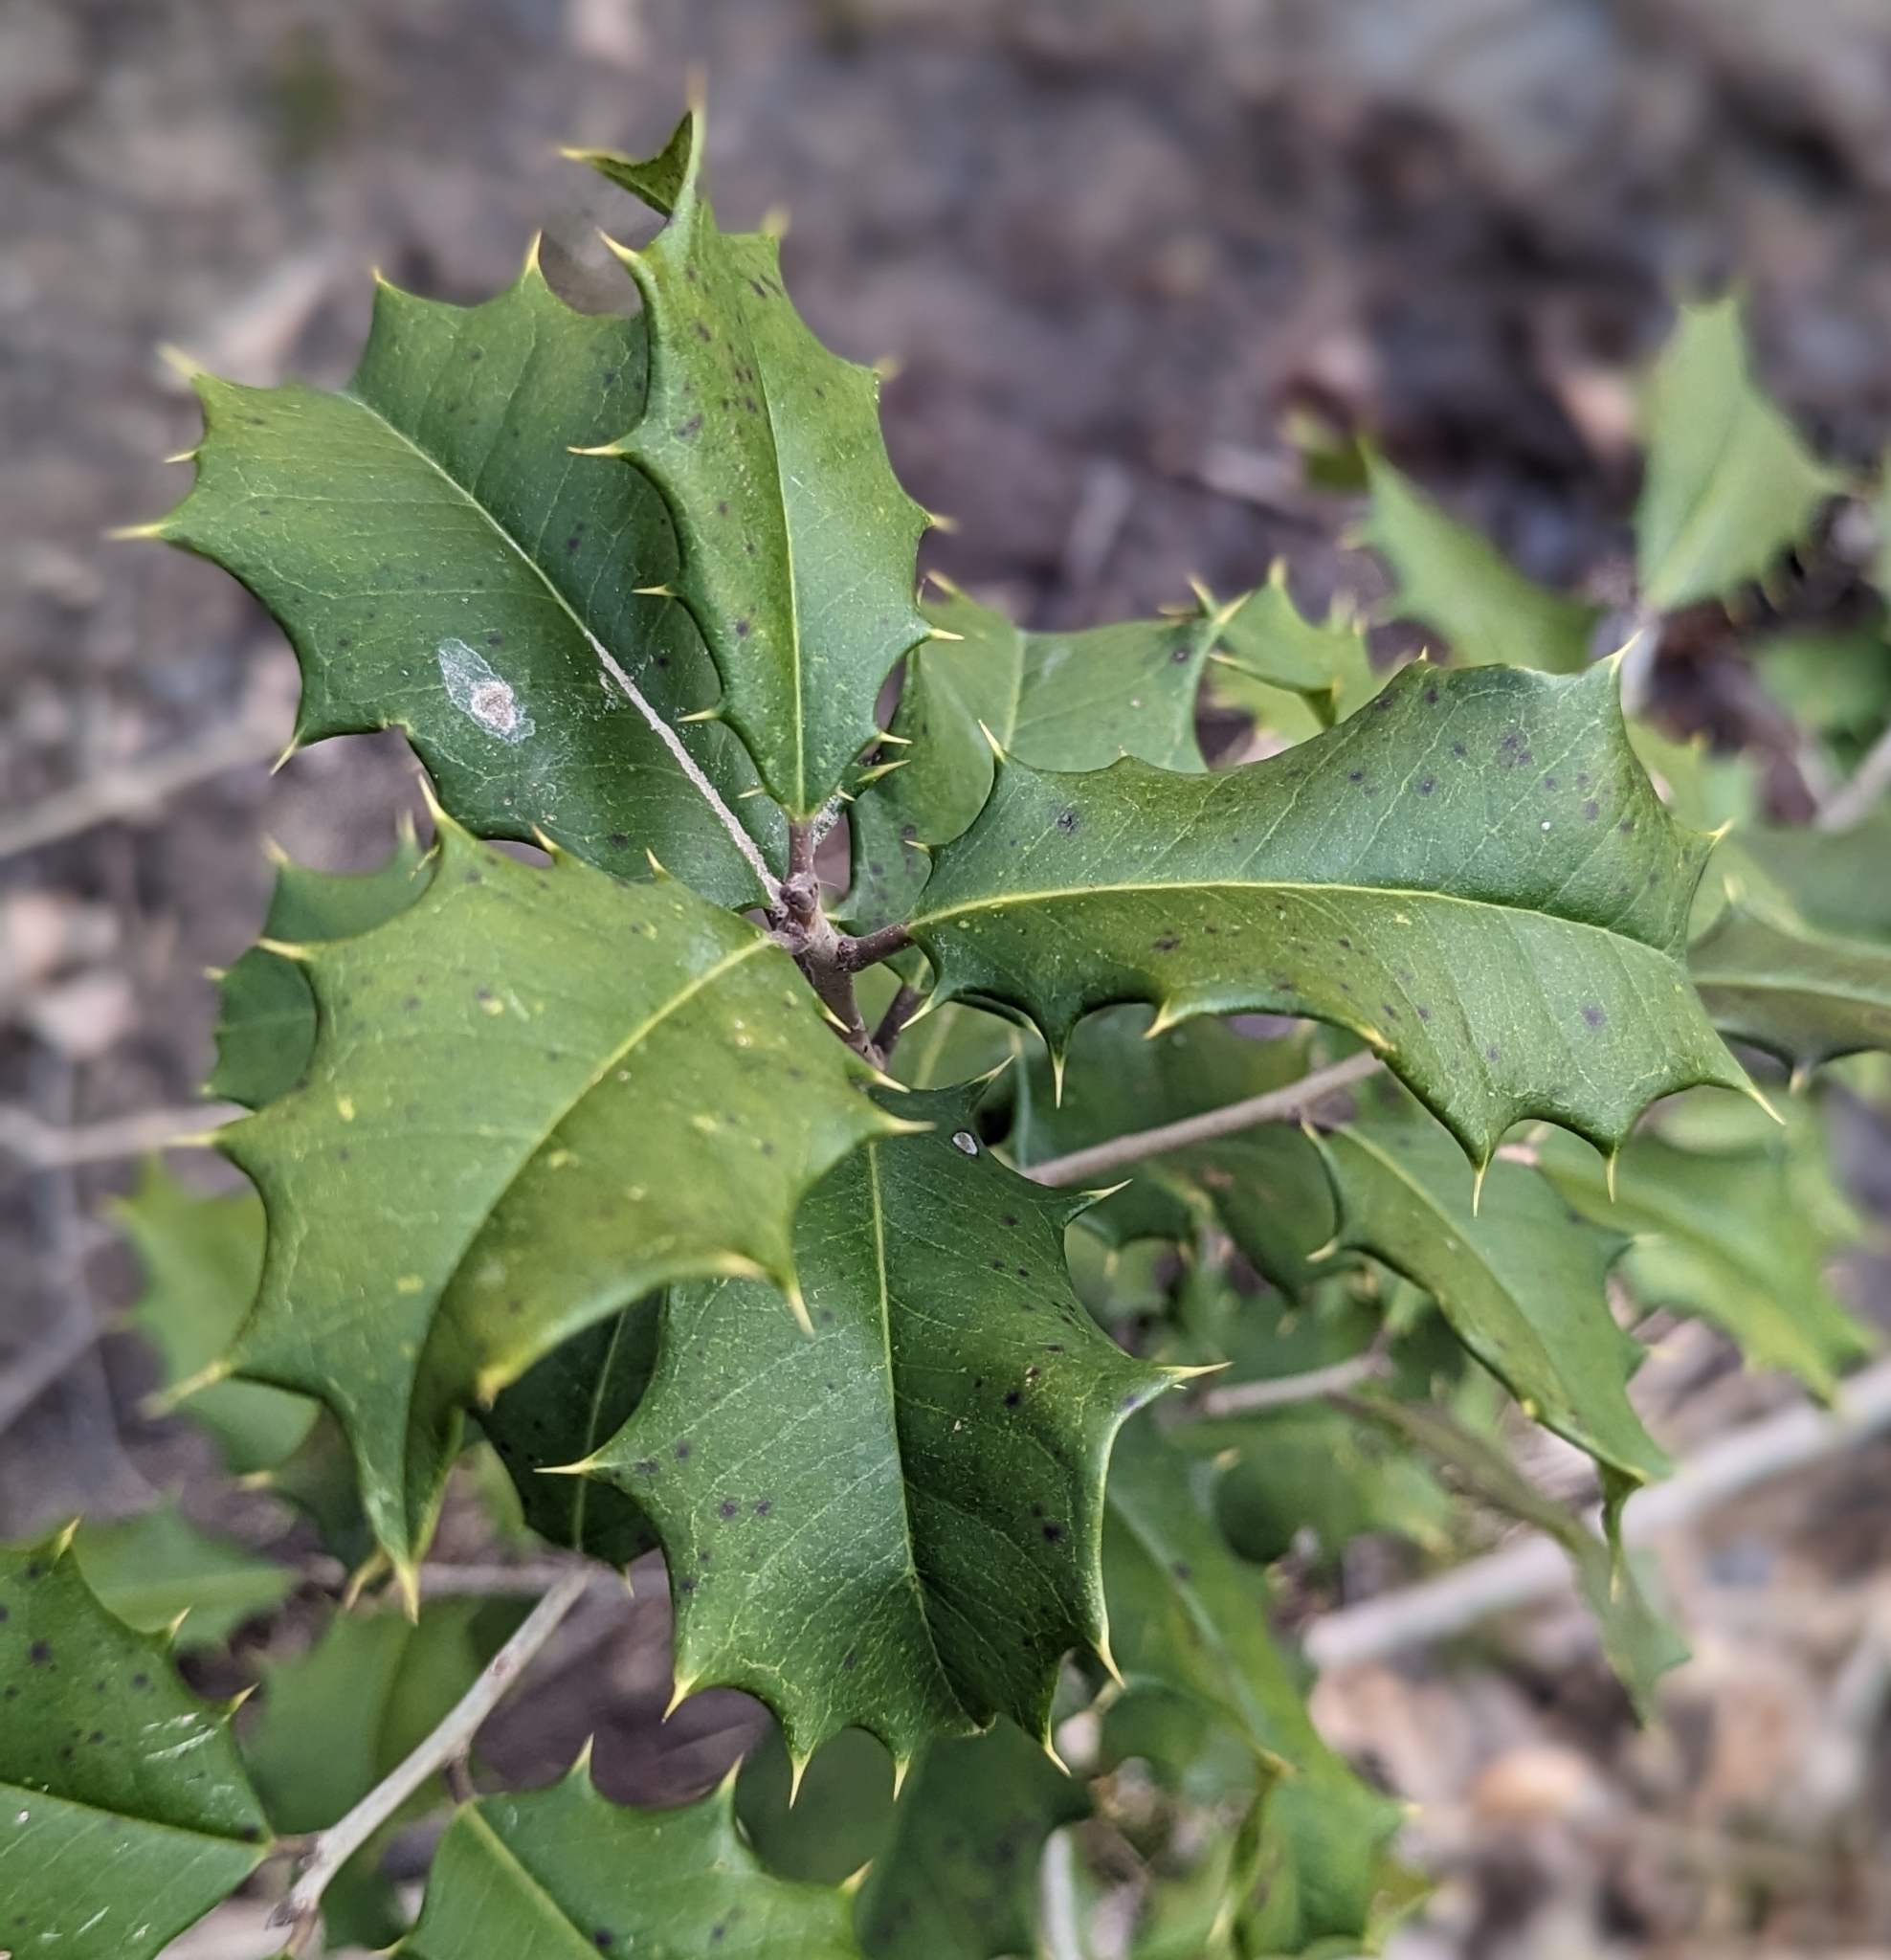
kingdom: Plantae
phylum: Tracheophyta
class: Magnoliopsida
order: Aquifoliales
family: Aquifoliaceae
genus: Ilex
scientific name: Ilex opaca
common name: American holly
